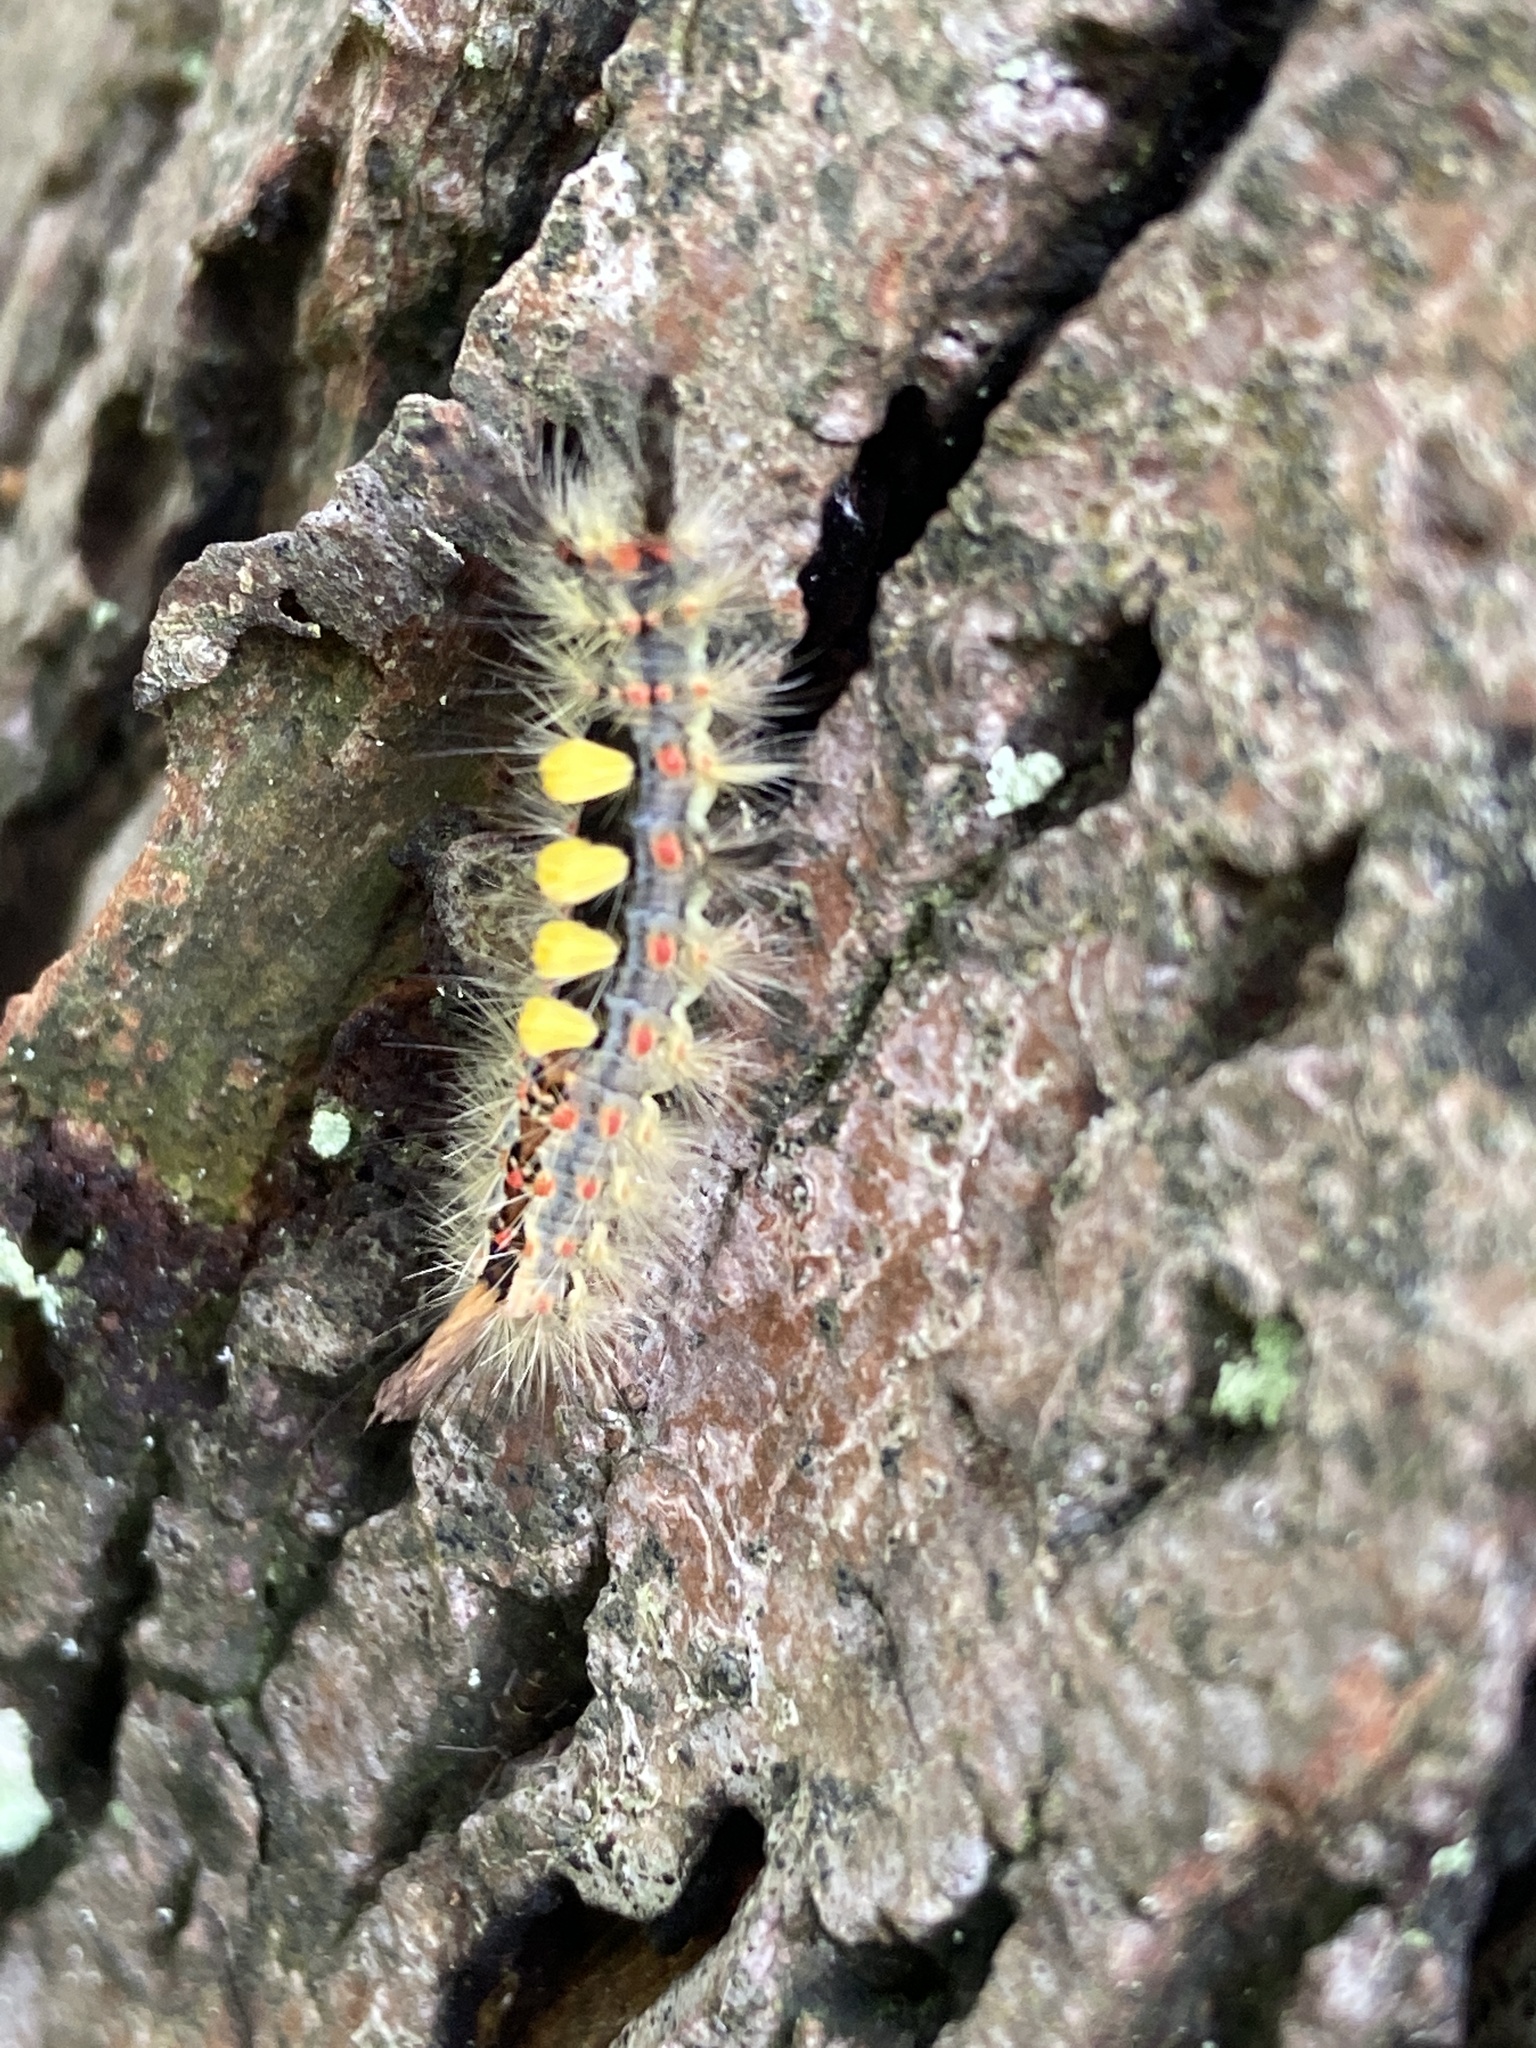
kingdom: Animalia
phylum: Arthropoda
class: Insecta
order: Lepidoptera
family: Erebidae
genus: Orgyia
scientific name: Orgyia antiqua
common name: Vapourer
